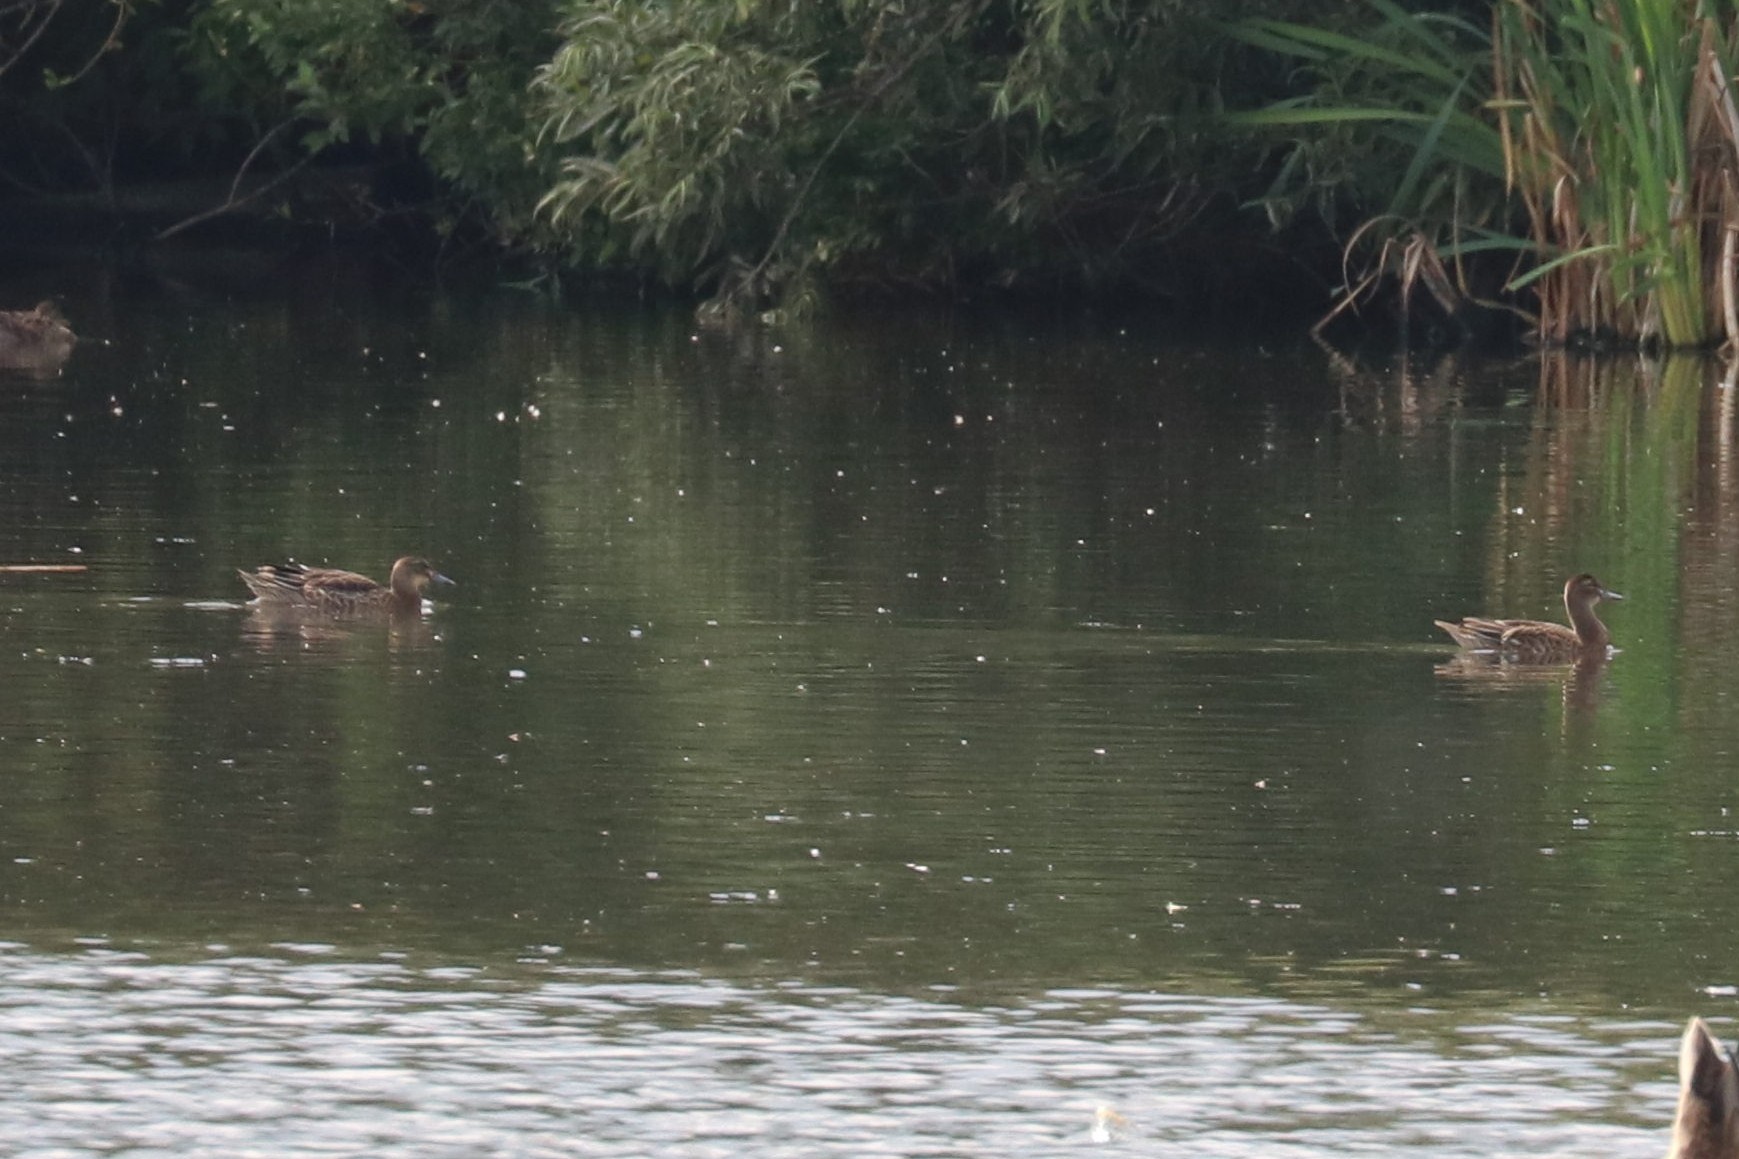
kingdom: Animalia
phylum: Chordata
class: Aves
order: Anseriformes
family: Anatidae
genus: Spatula
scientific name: Spatula querquedula
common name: Garganey
